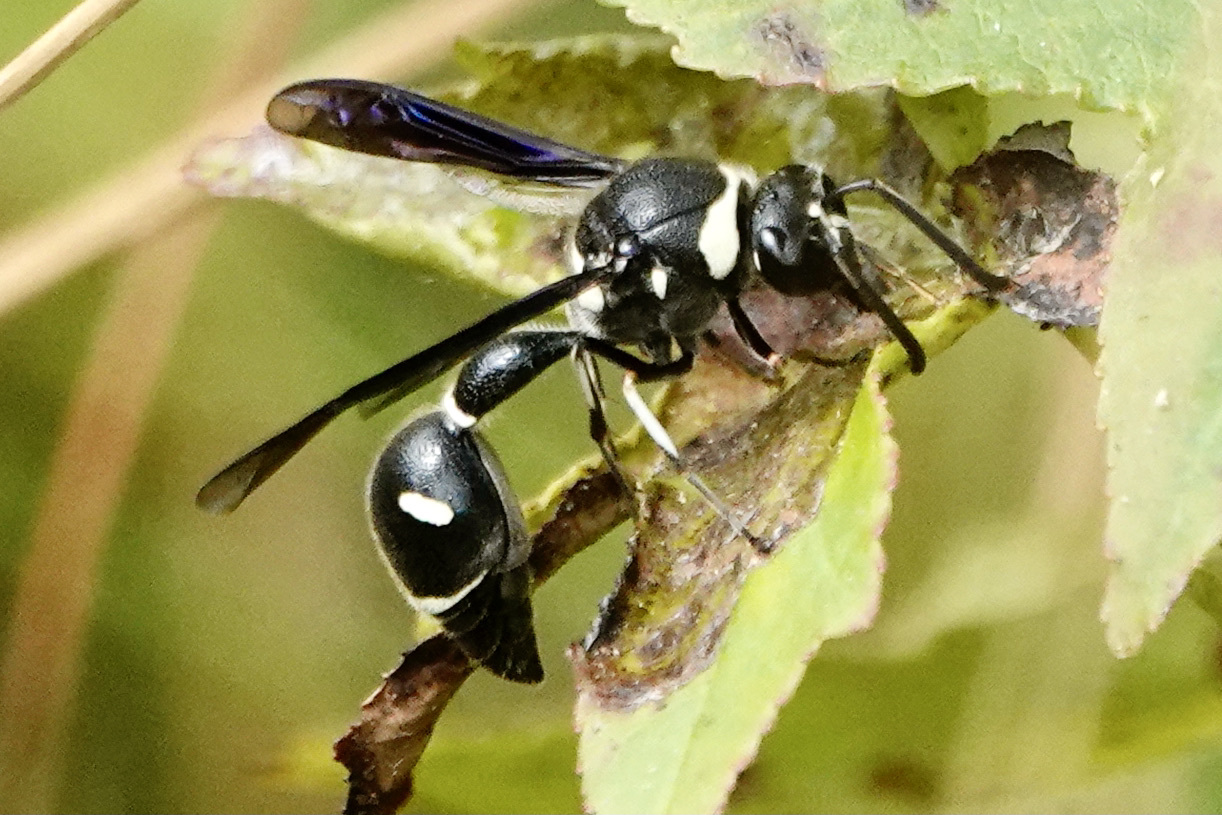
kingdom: Animalia
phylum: Arthropoda
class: Insecta
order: Hymenoptera
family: Vespidae
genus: Eumenes
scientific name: Eumenes fraternus
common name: Fraternal potter wasp
